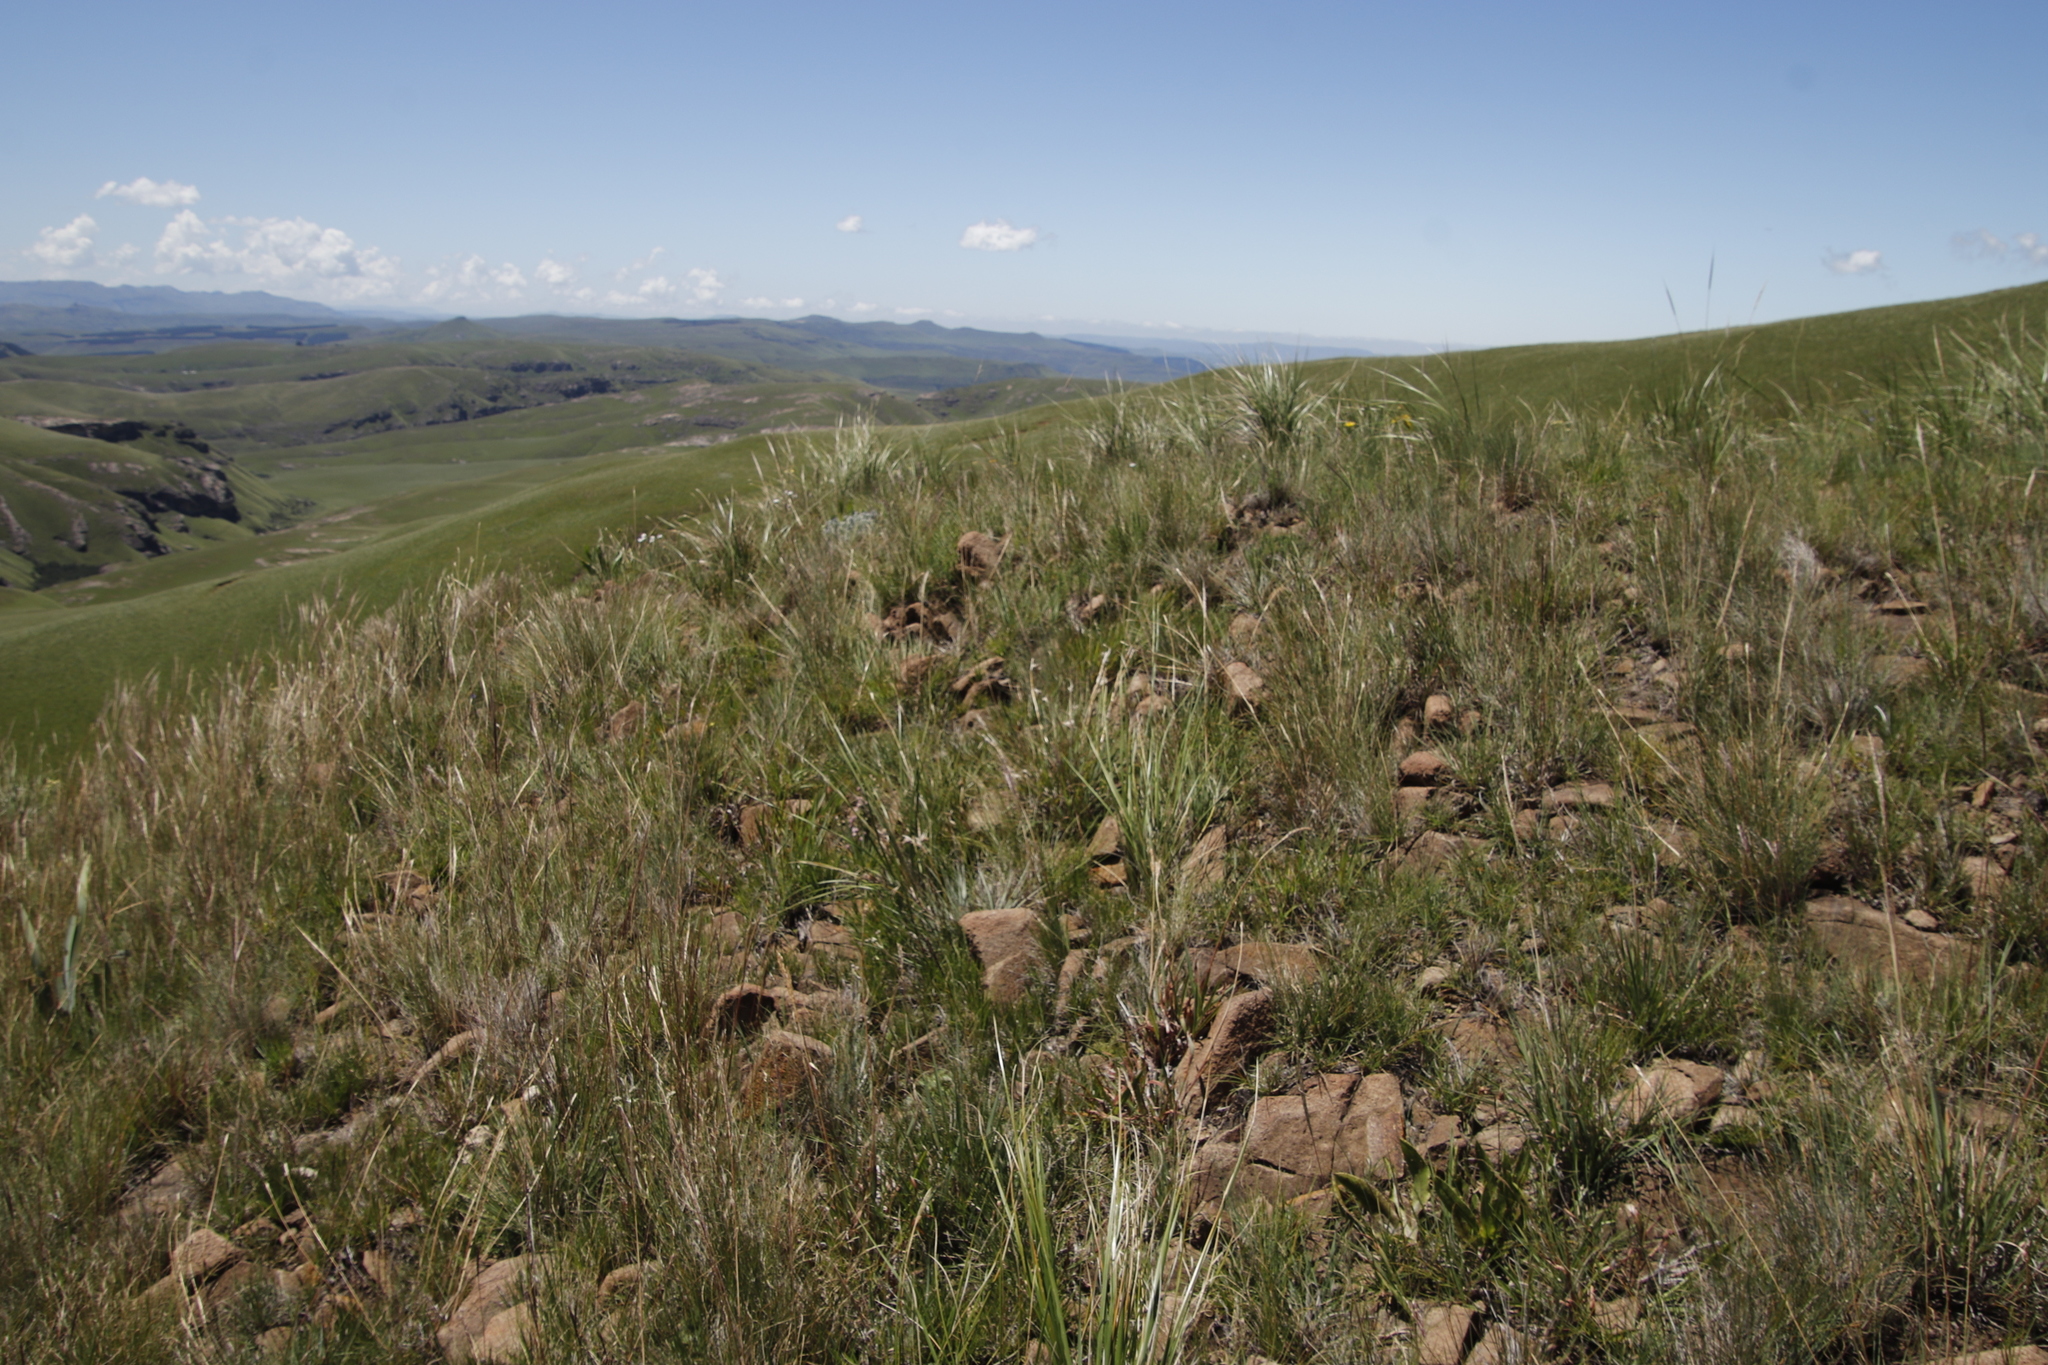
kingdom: Plantae
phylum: Tracheophyta
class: Liliopsida
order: Poales
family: Poaceae
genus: Themeda
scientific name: Themeda triandra
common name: Kangaroo grass
